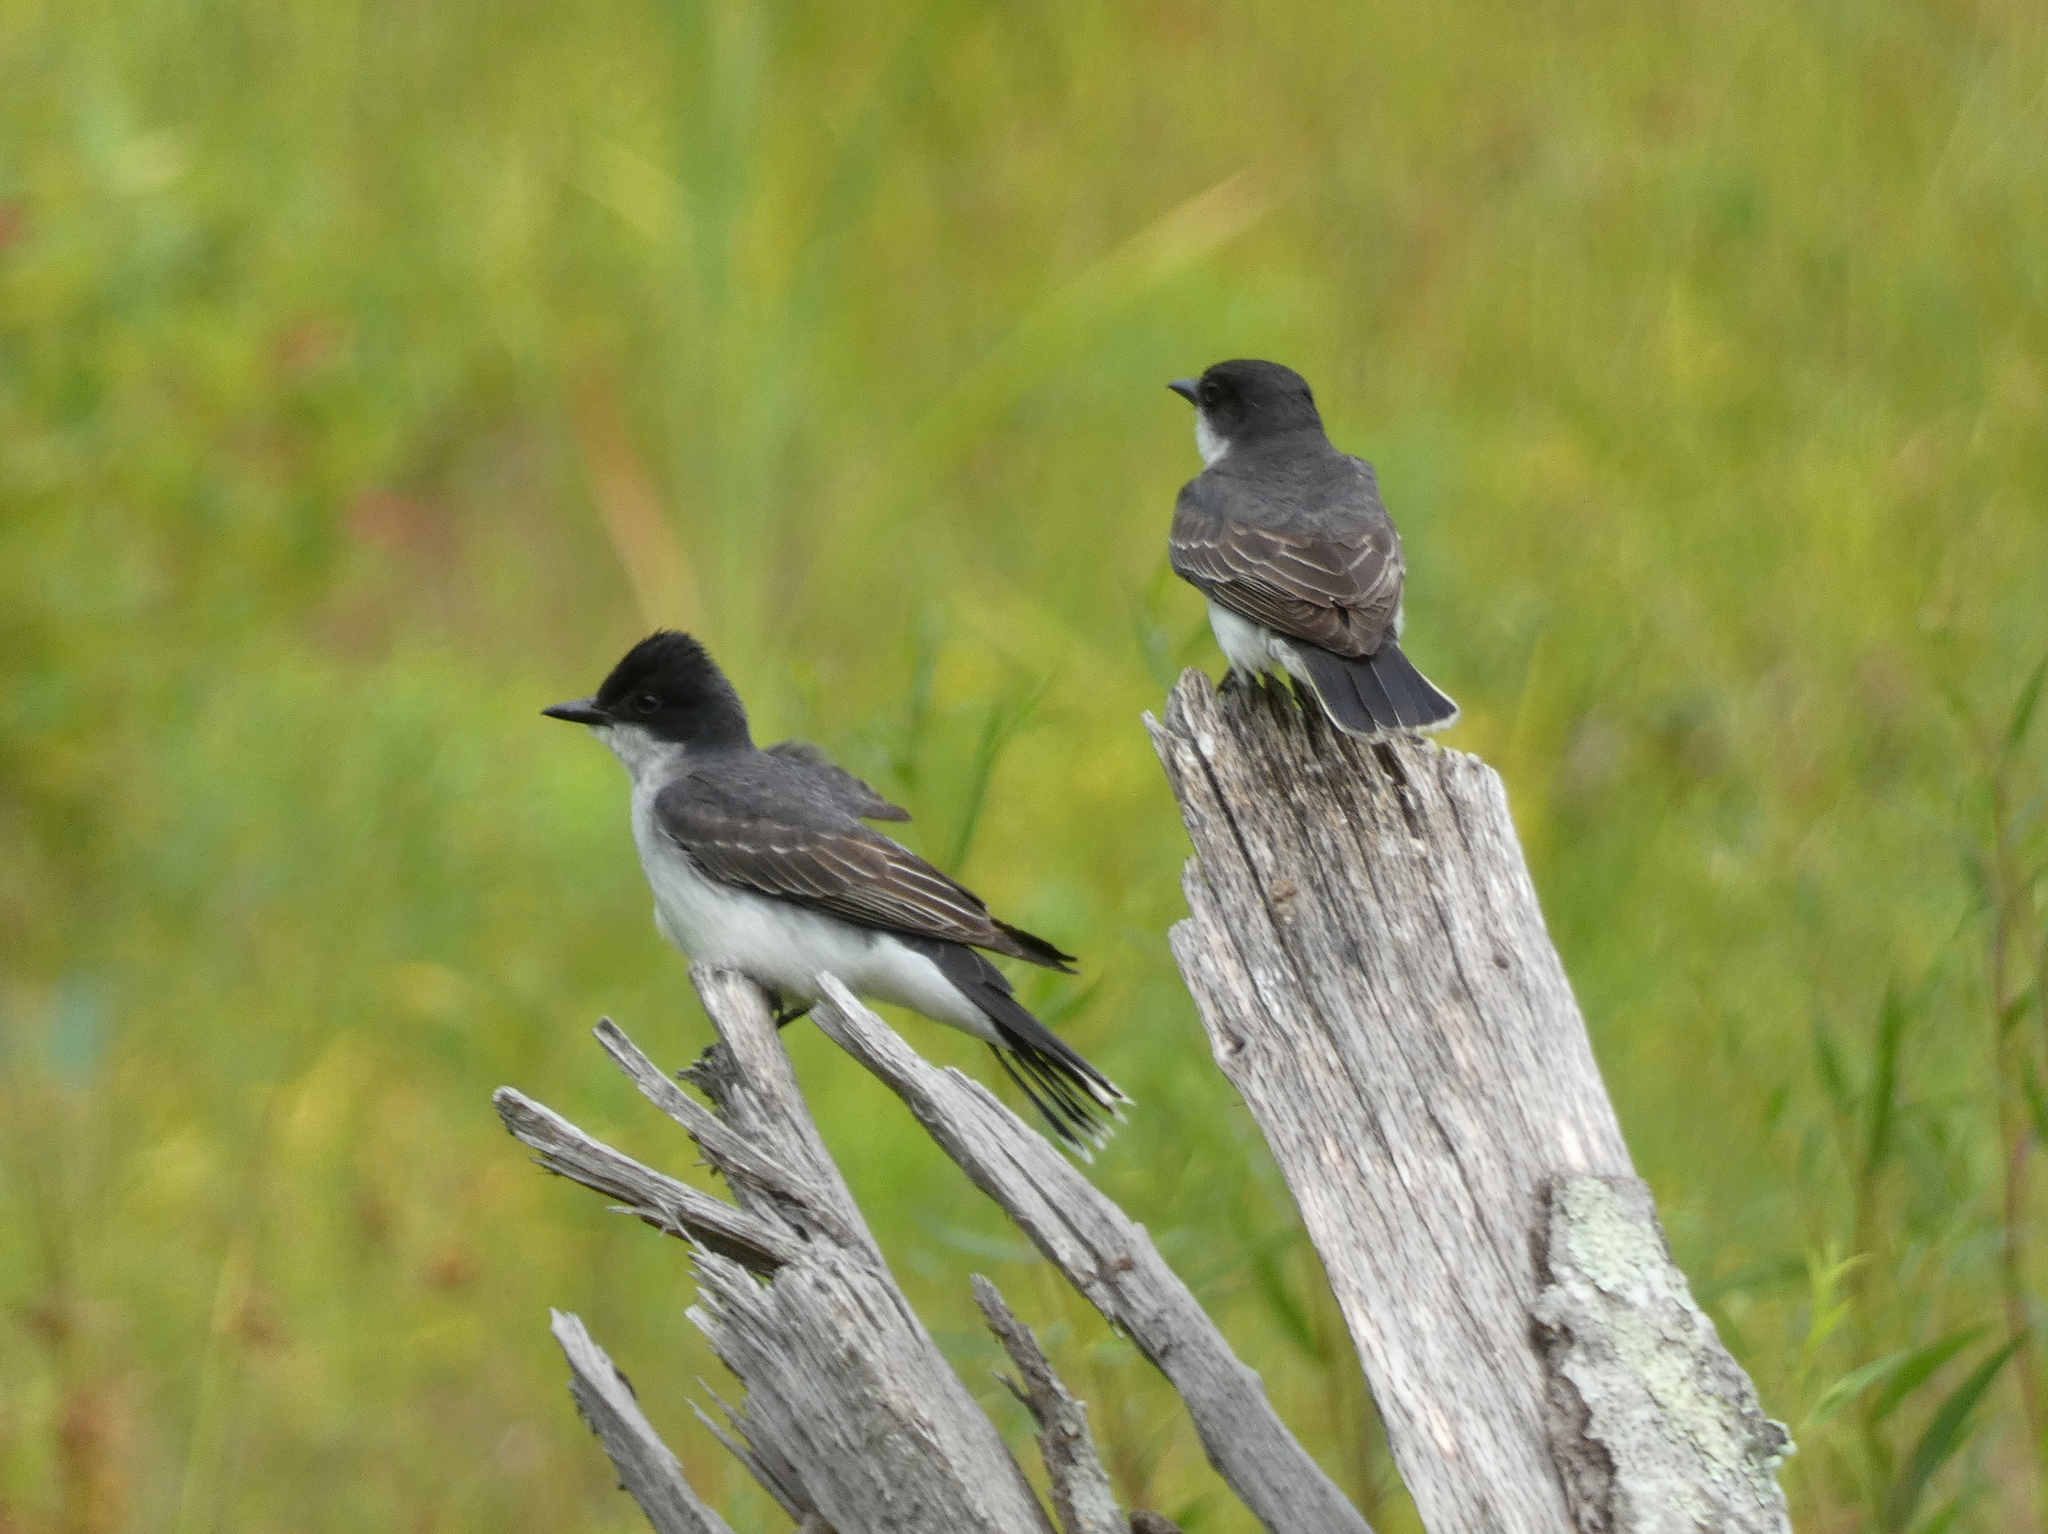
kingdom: Animalia
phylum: Chordata
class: Aves
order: Passeriformes
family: Tyrannidae
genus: Tyrannus
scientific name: Tyrannus tyrannus
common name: Eastern kingbird
